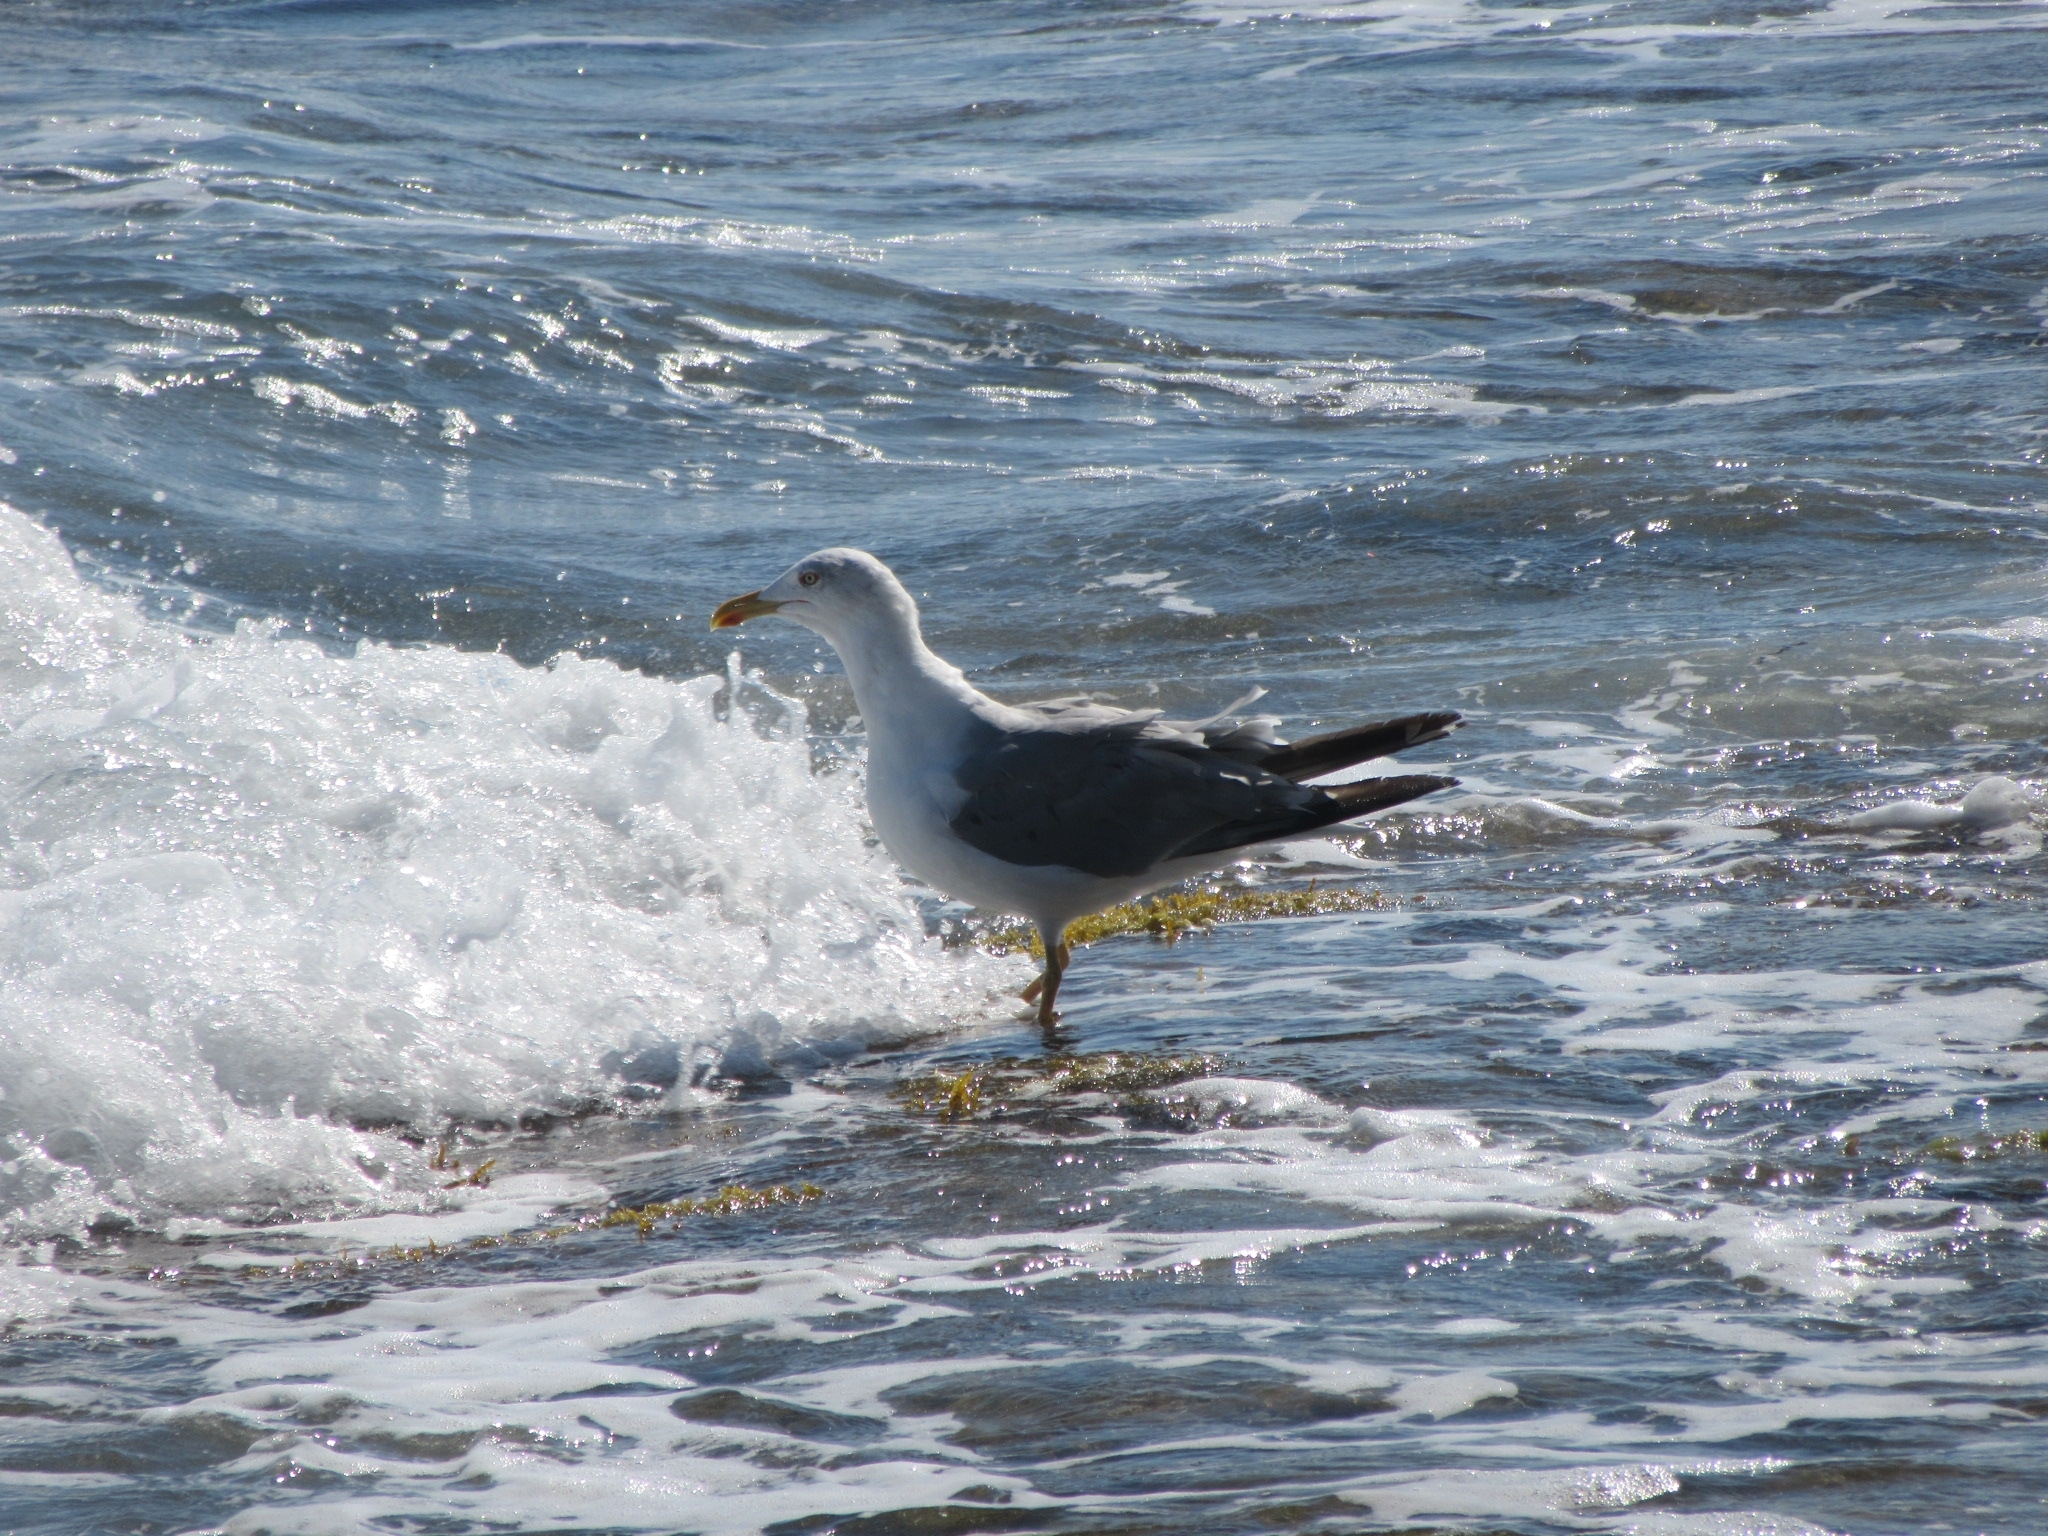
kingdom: Animalia
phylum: Chordata
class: Aves
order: Charadriiformes
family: Laridae
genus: Larus
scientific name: Larus michahellis
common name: Yellow-legged gull
